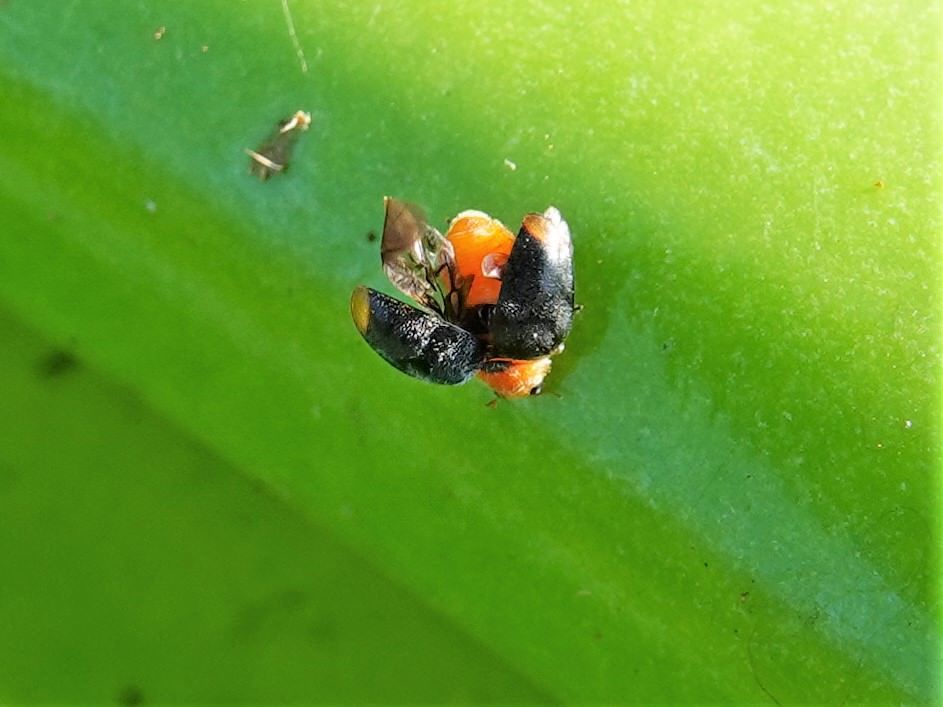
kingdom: Animalia
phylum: Arthropoda
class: Insecta
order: Coleoptera
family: Coccinellidae
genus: Cryptolaemus
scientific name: Cryptolaemus montrouzieri
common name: Mealybug destroyer
